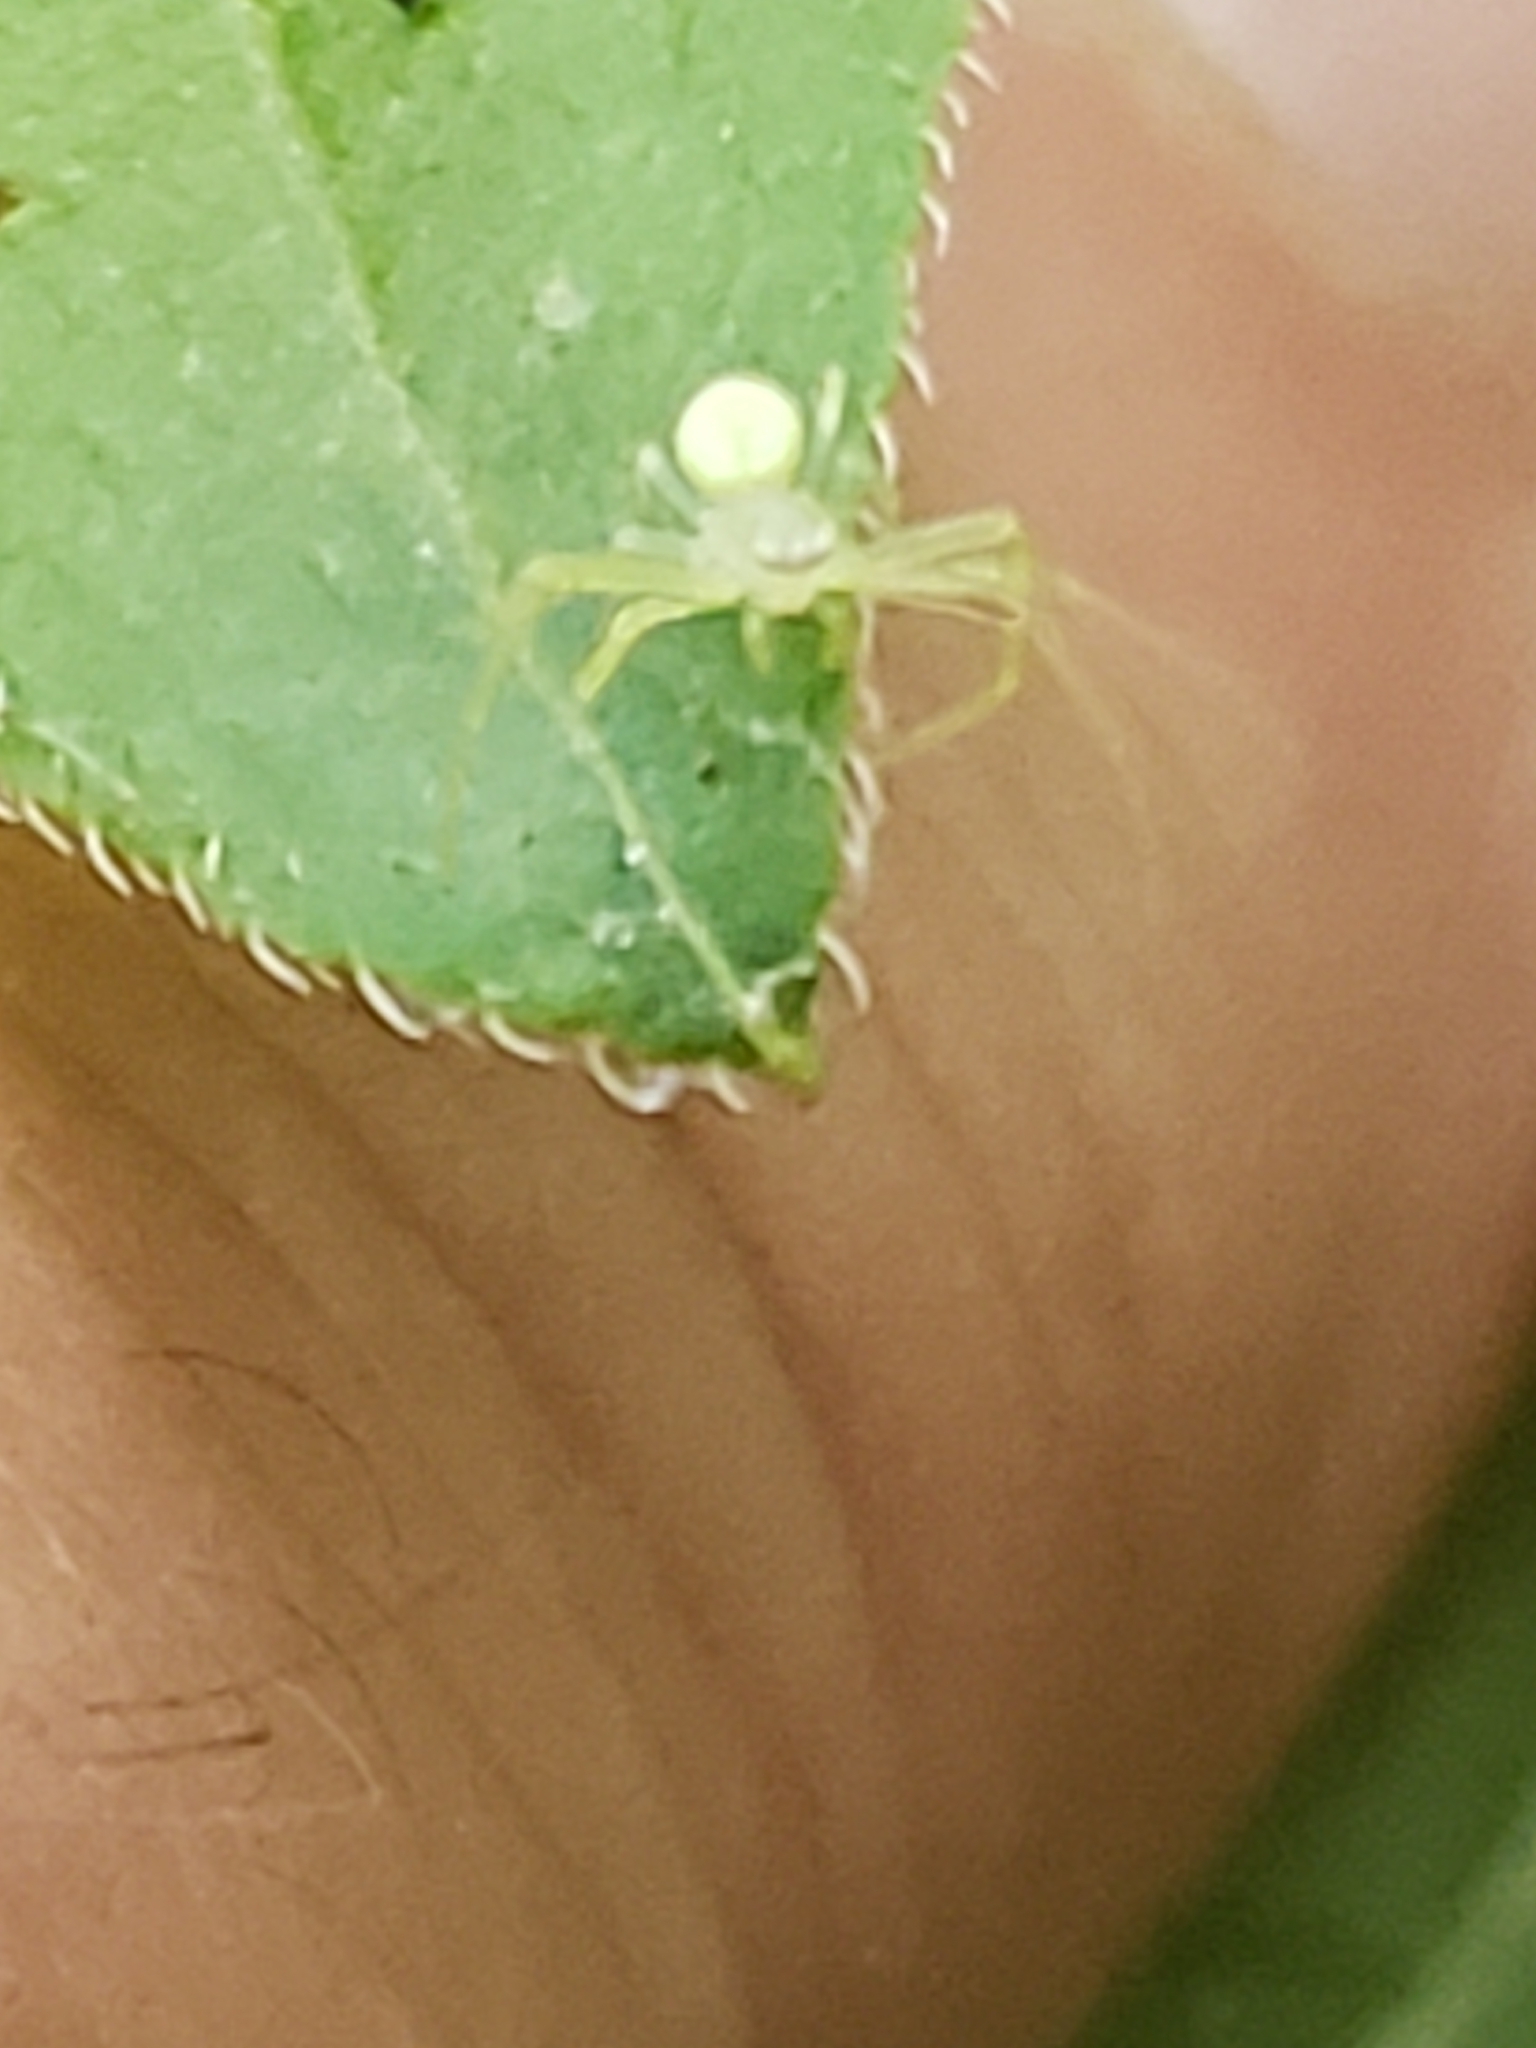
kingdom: Animalia
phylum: Arthropoda
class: Arachnida
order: Araneae
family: Thomisidae
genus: Misumessus
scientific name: Misumessus oblongus
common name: American green crab spider
